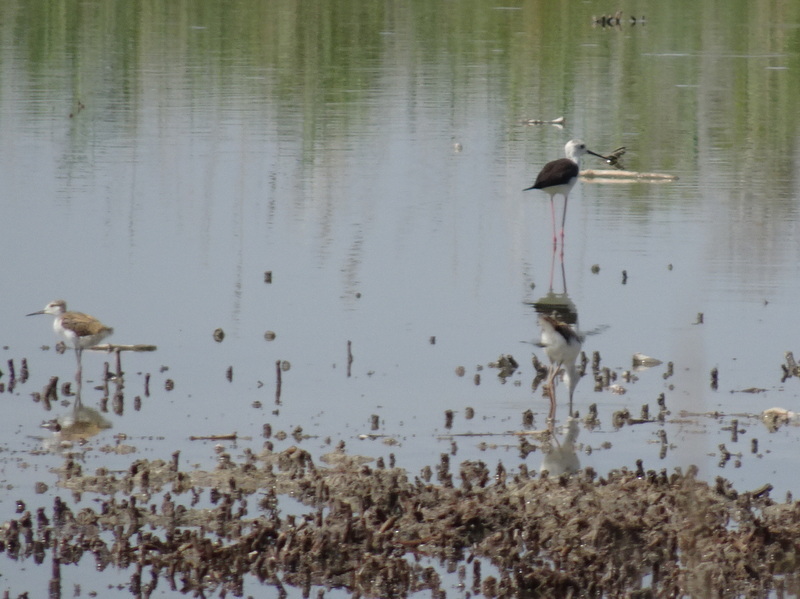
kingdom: Animalia
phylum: Chordata
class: Aves
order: Charadriiformes
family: Recurvirostridae
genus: Himantopus
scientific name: Himantopus himantopus
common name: Black-winged stilt
